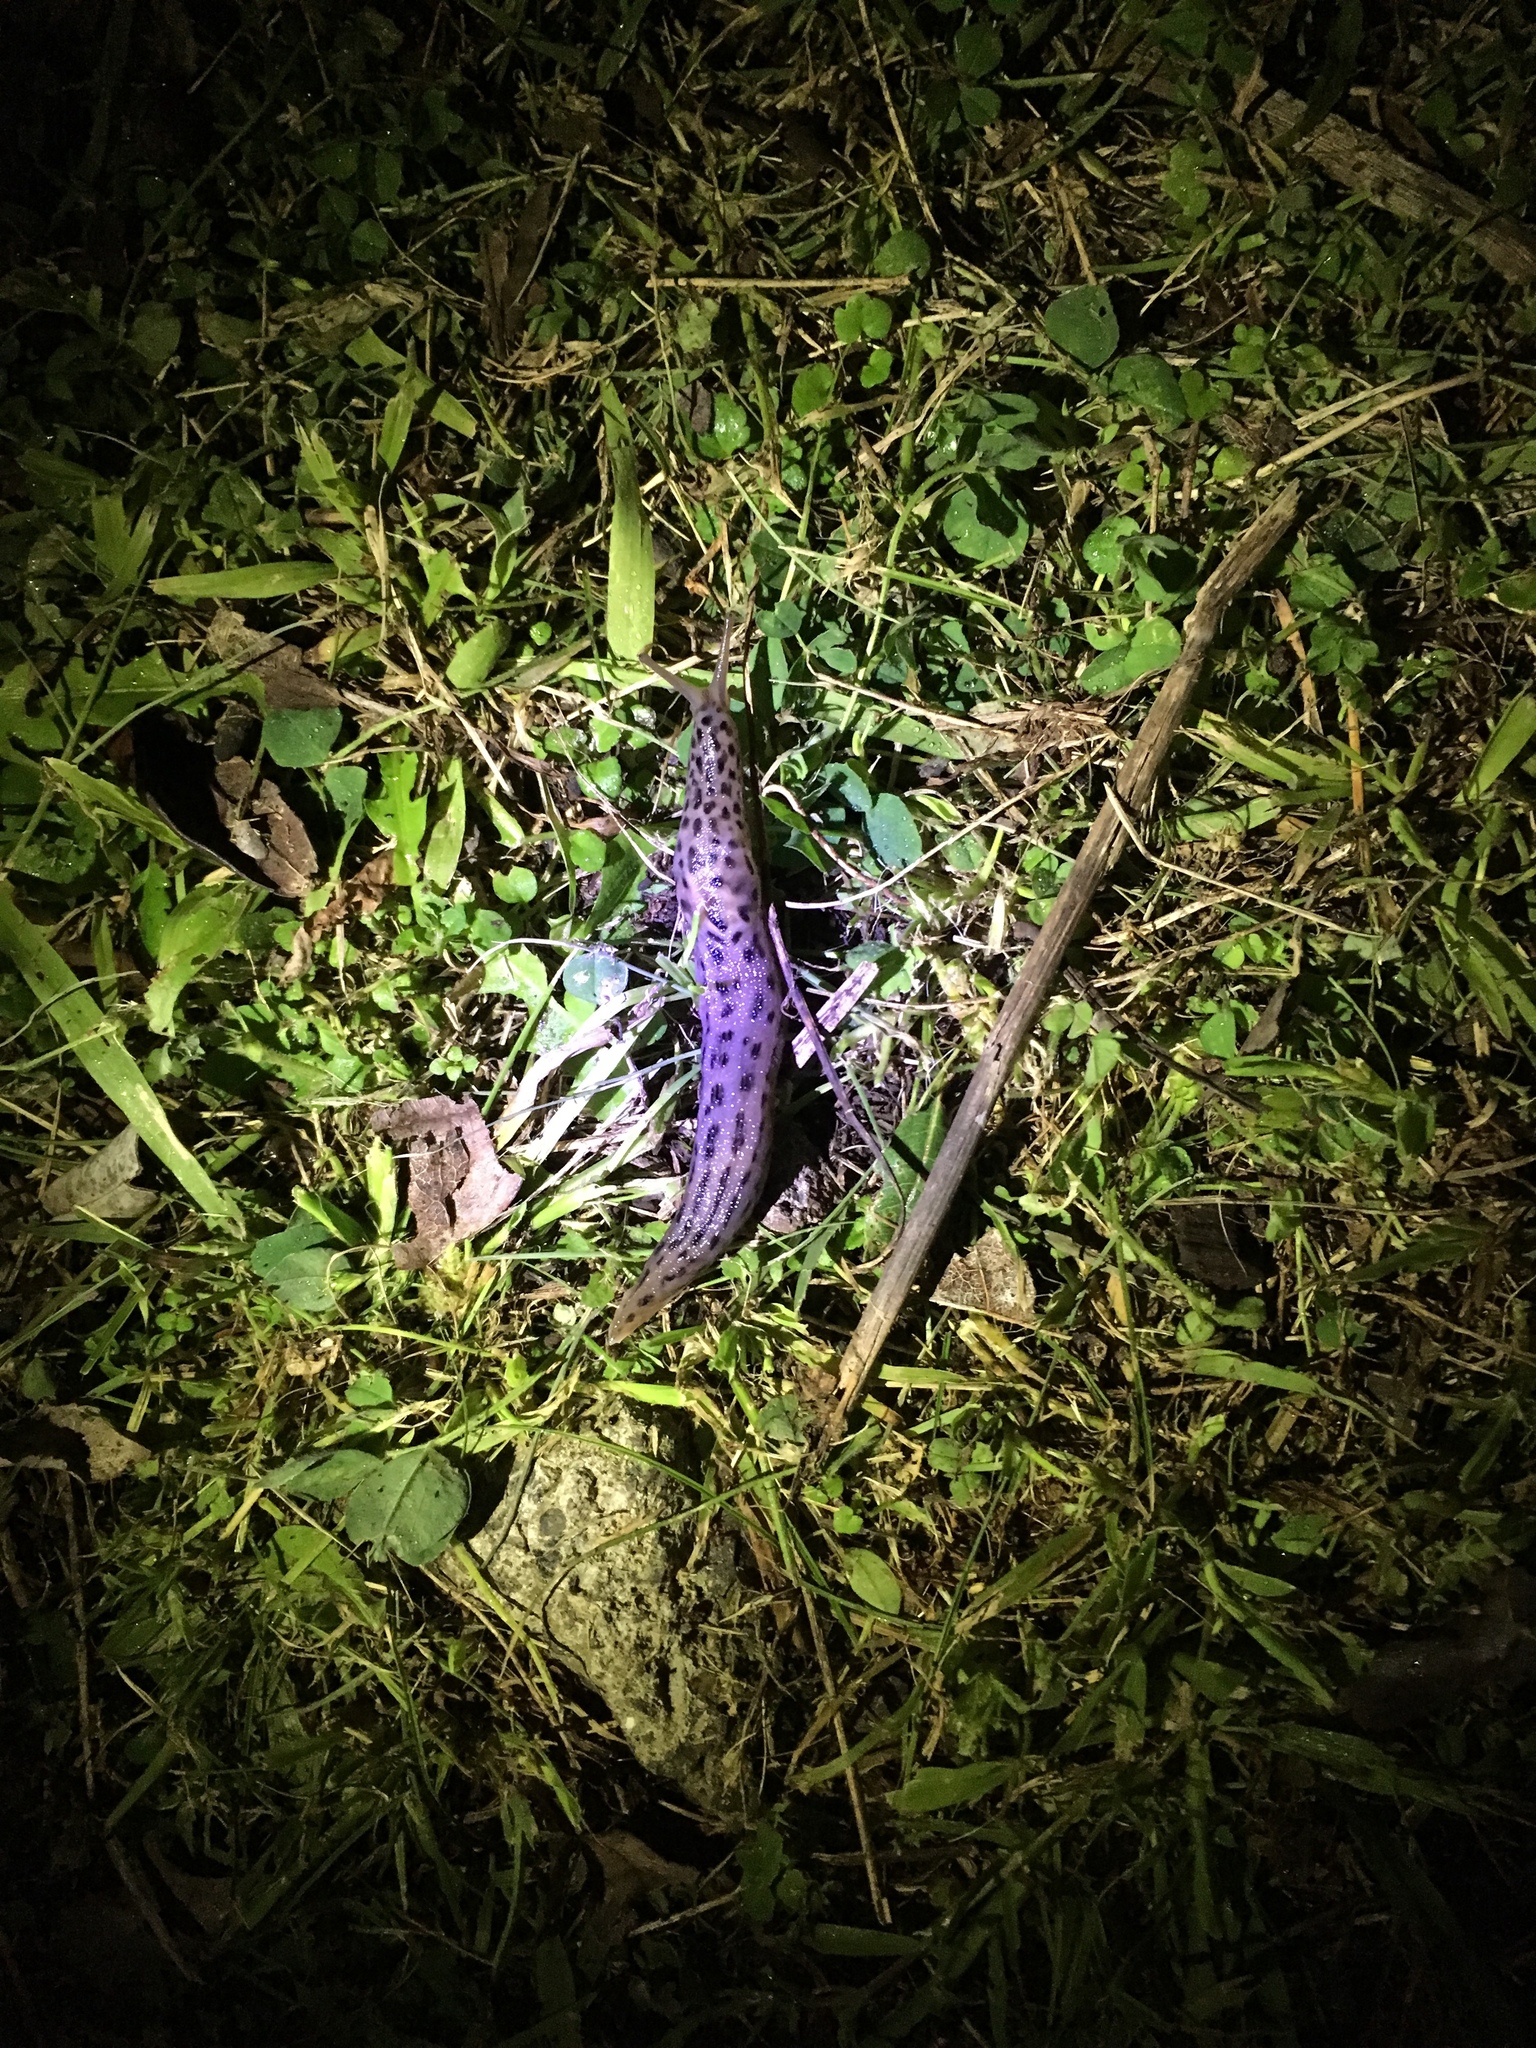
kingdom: Animalia
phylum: Mollusca
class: Gastropoda
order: Stylommatophora
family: Limacidae
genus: Limax
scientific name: Limax maximus
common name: Great grey slug
